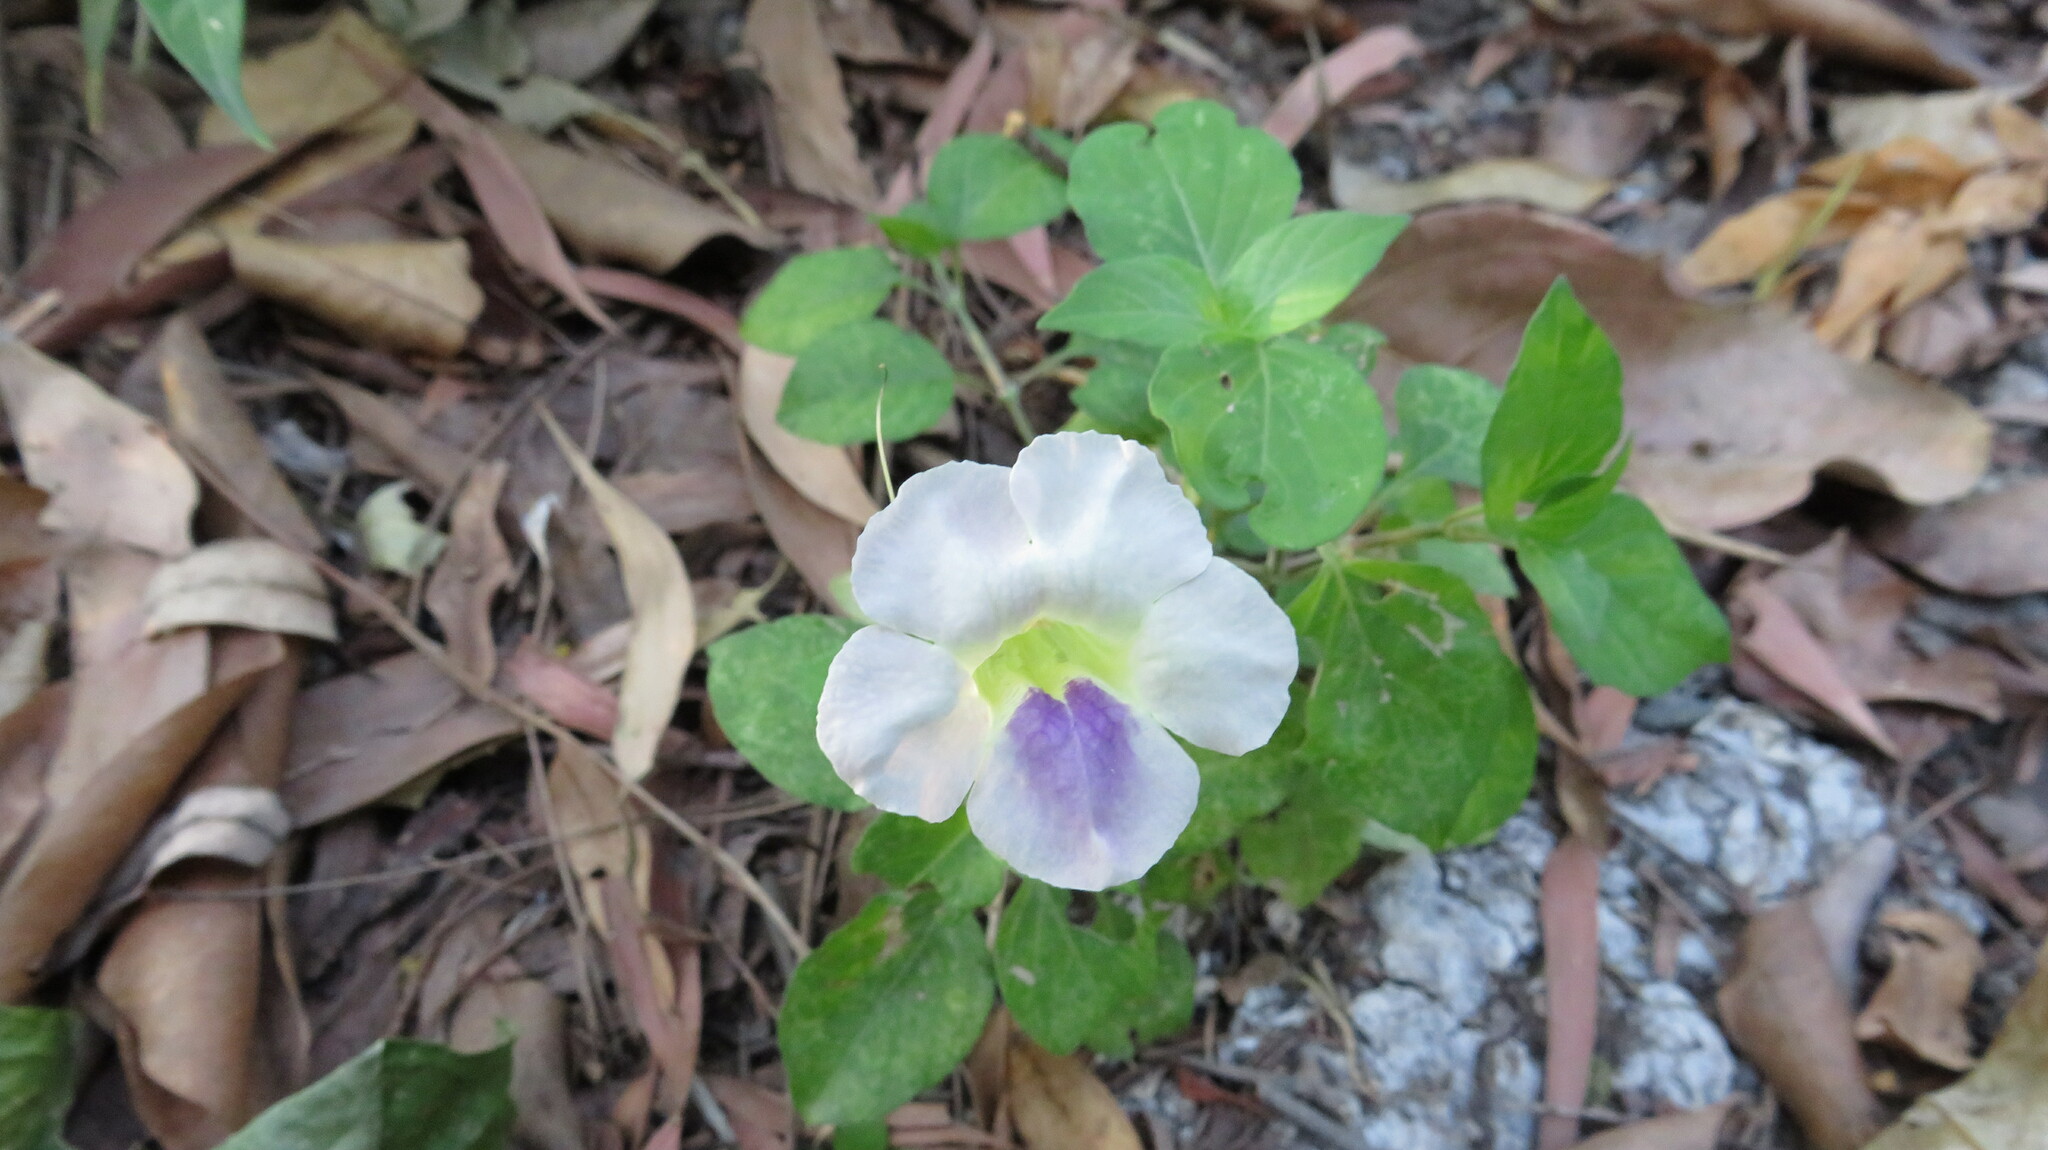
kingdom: Plantae
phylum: Tracheophyta
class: Magnoliopsida
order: Lamiales
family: Acanthaceae
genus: Asystasia
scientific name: Asystasia gangetica
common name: Chinese violet
